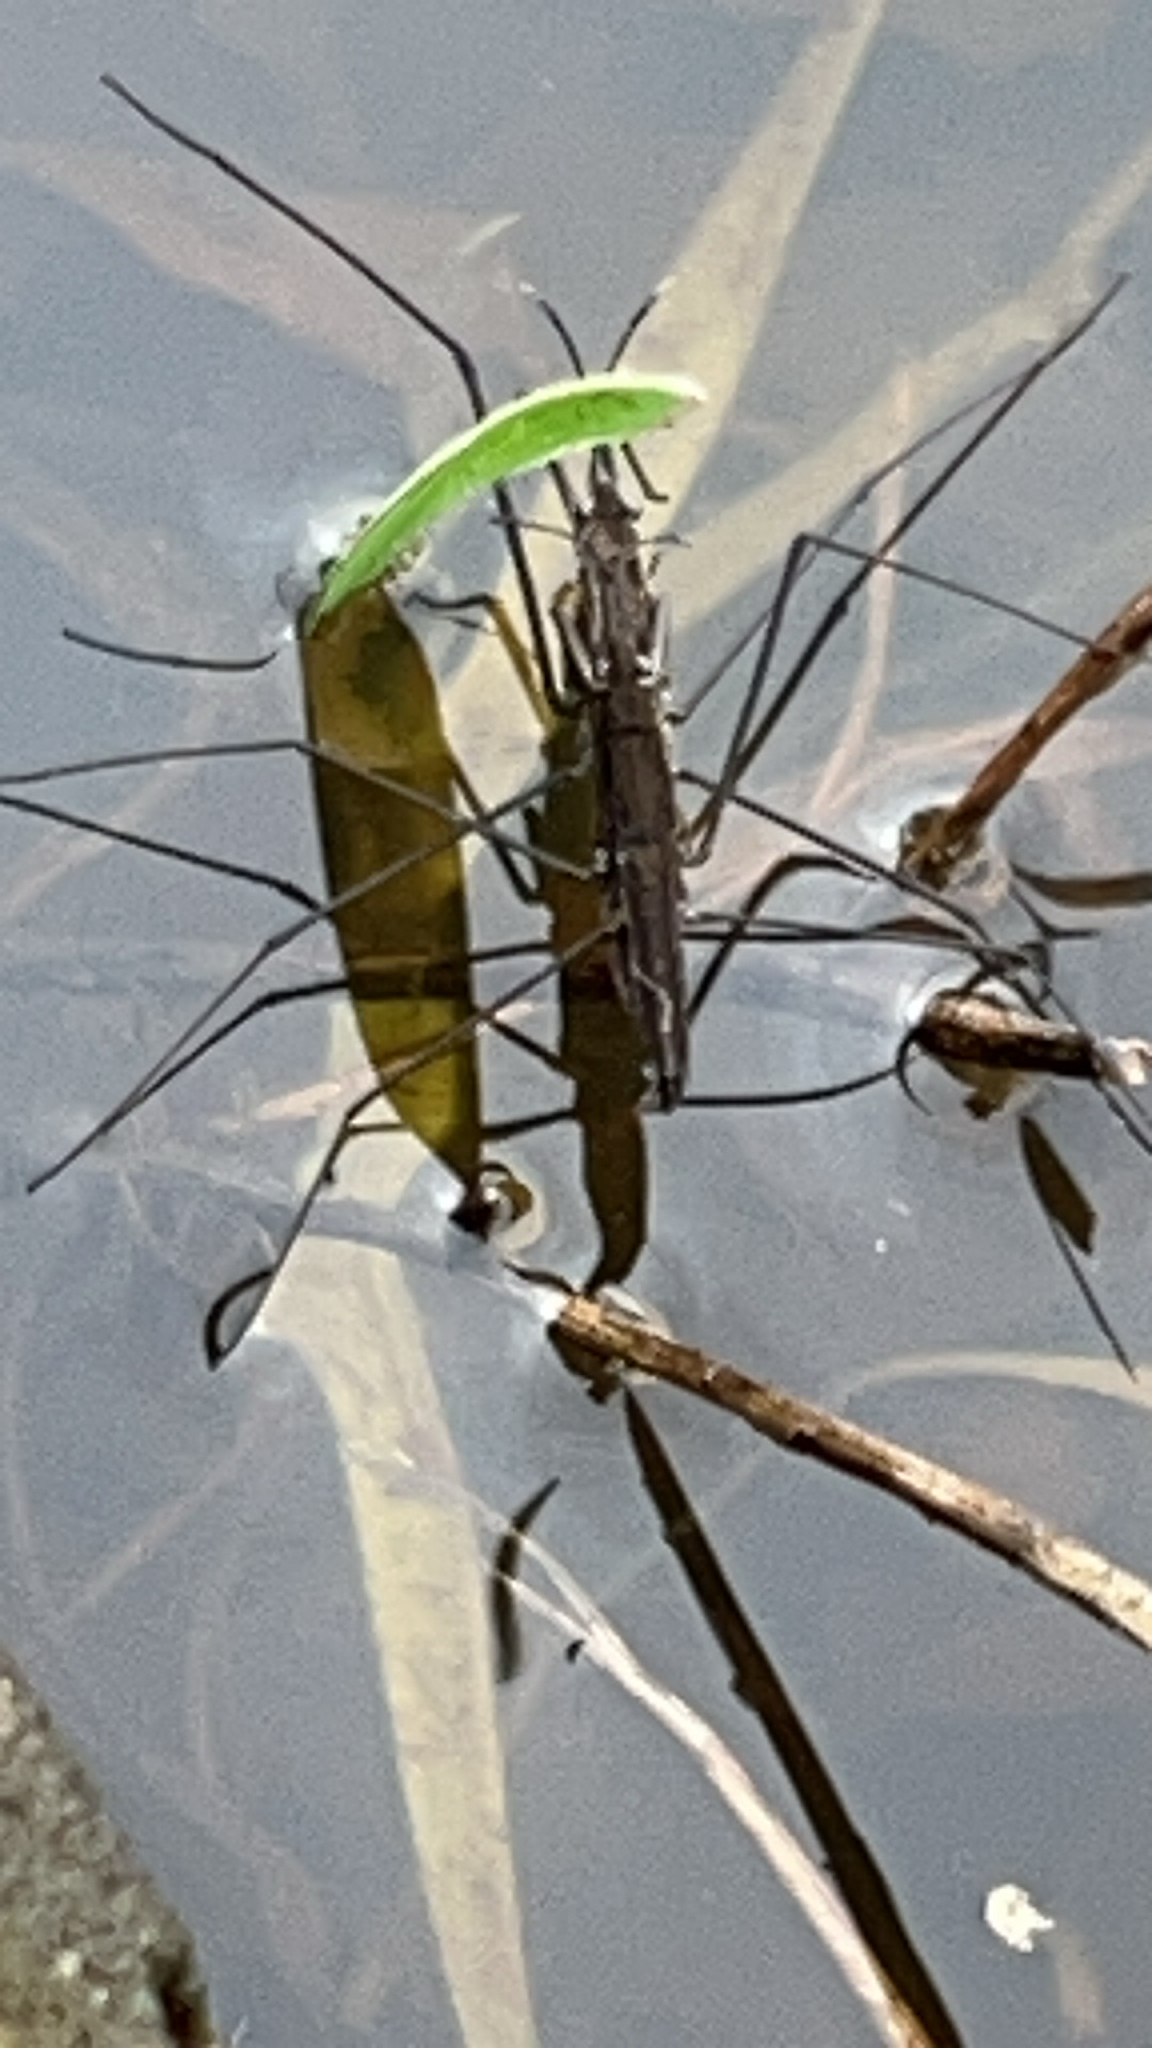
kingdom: Animalia
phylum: Arthropoda
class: Insecta
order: Hemiptera
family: Gerridae
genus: Aquarius
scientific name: Aquarius najas
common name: River skater
